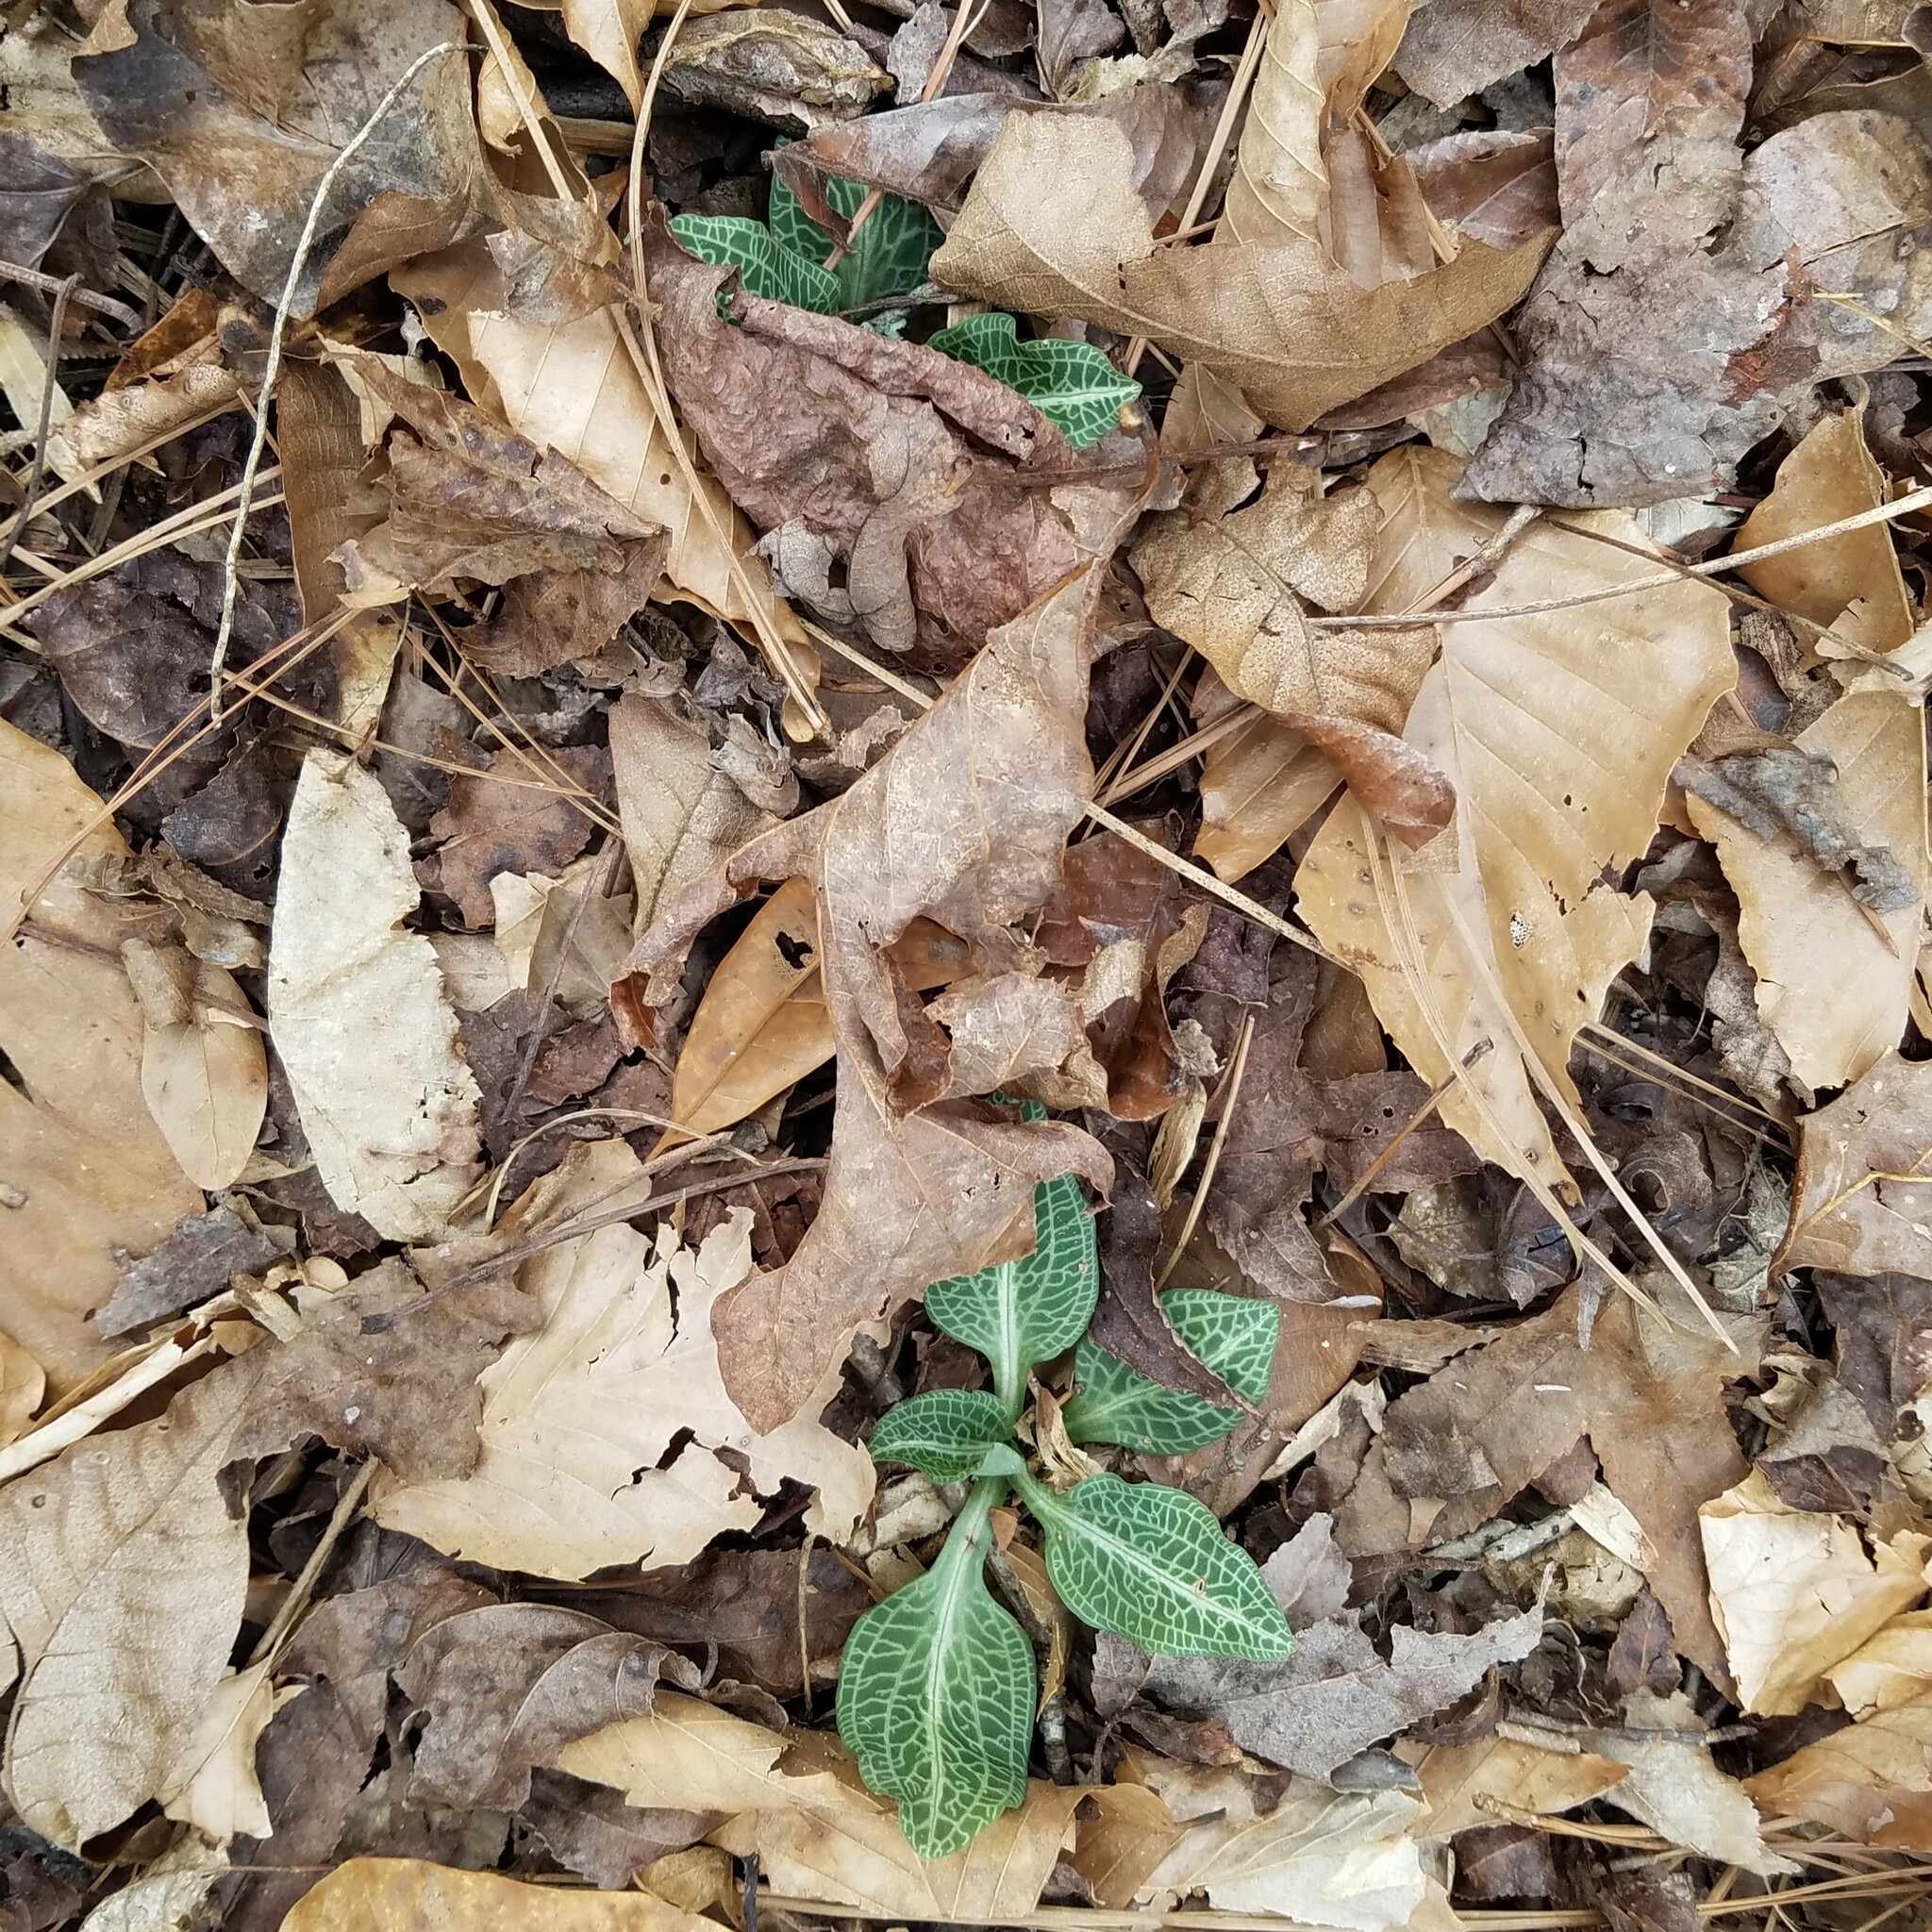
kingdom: Plantae
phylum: Tracheophyta
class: Liliopsida
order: Asparagales
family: Orchidaceae
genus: Goodyera
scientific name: Goodyera pubescens
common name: Downy rattlesnake-plantain
